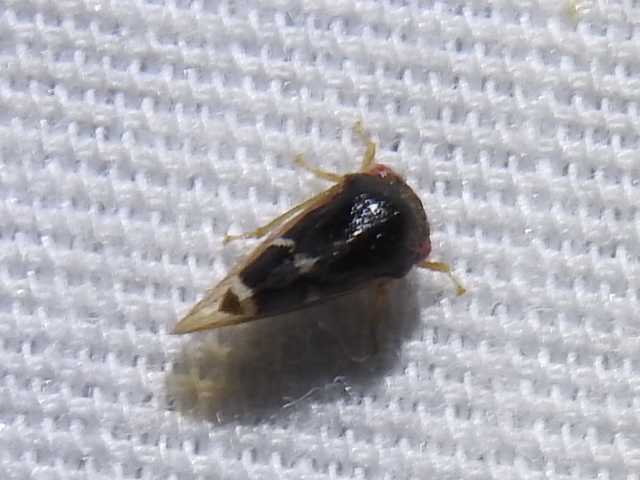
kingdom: Animalia
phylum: Arthropoda
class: Insecta
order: Hemiptera
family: Membracidae
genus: Cyrtolobus
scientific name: Cyrtolobus inermis
